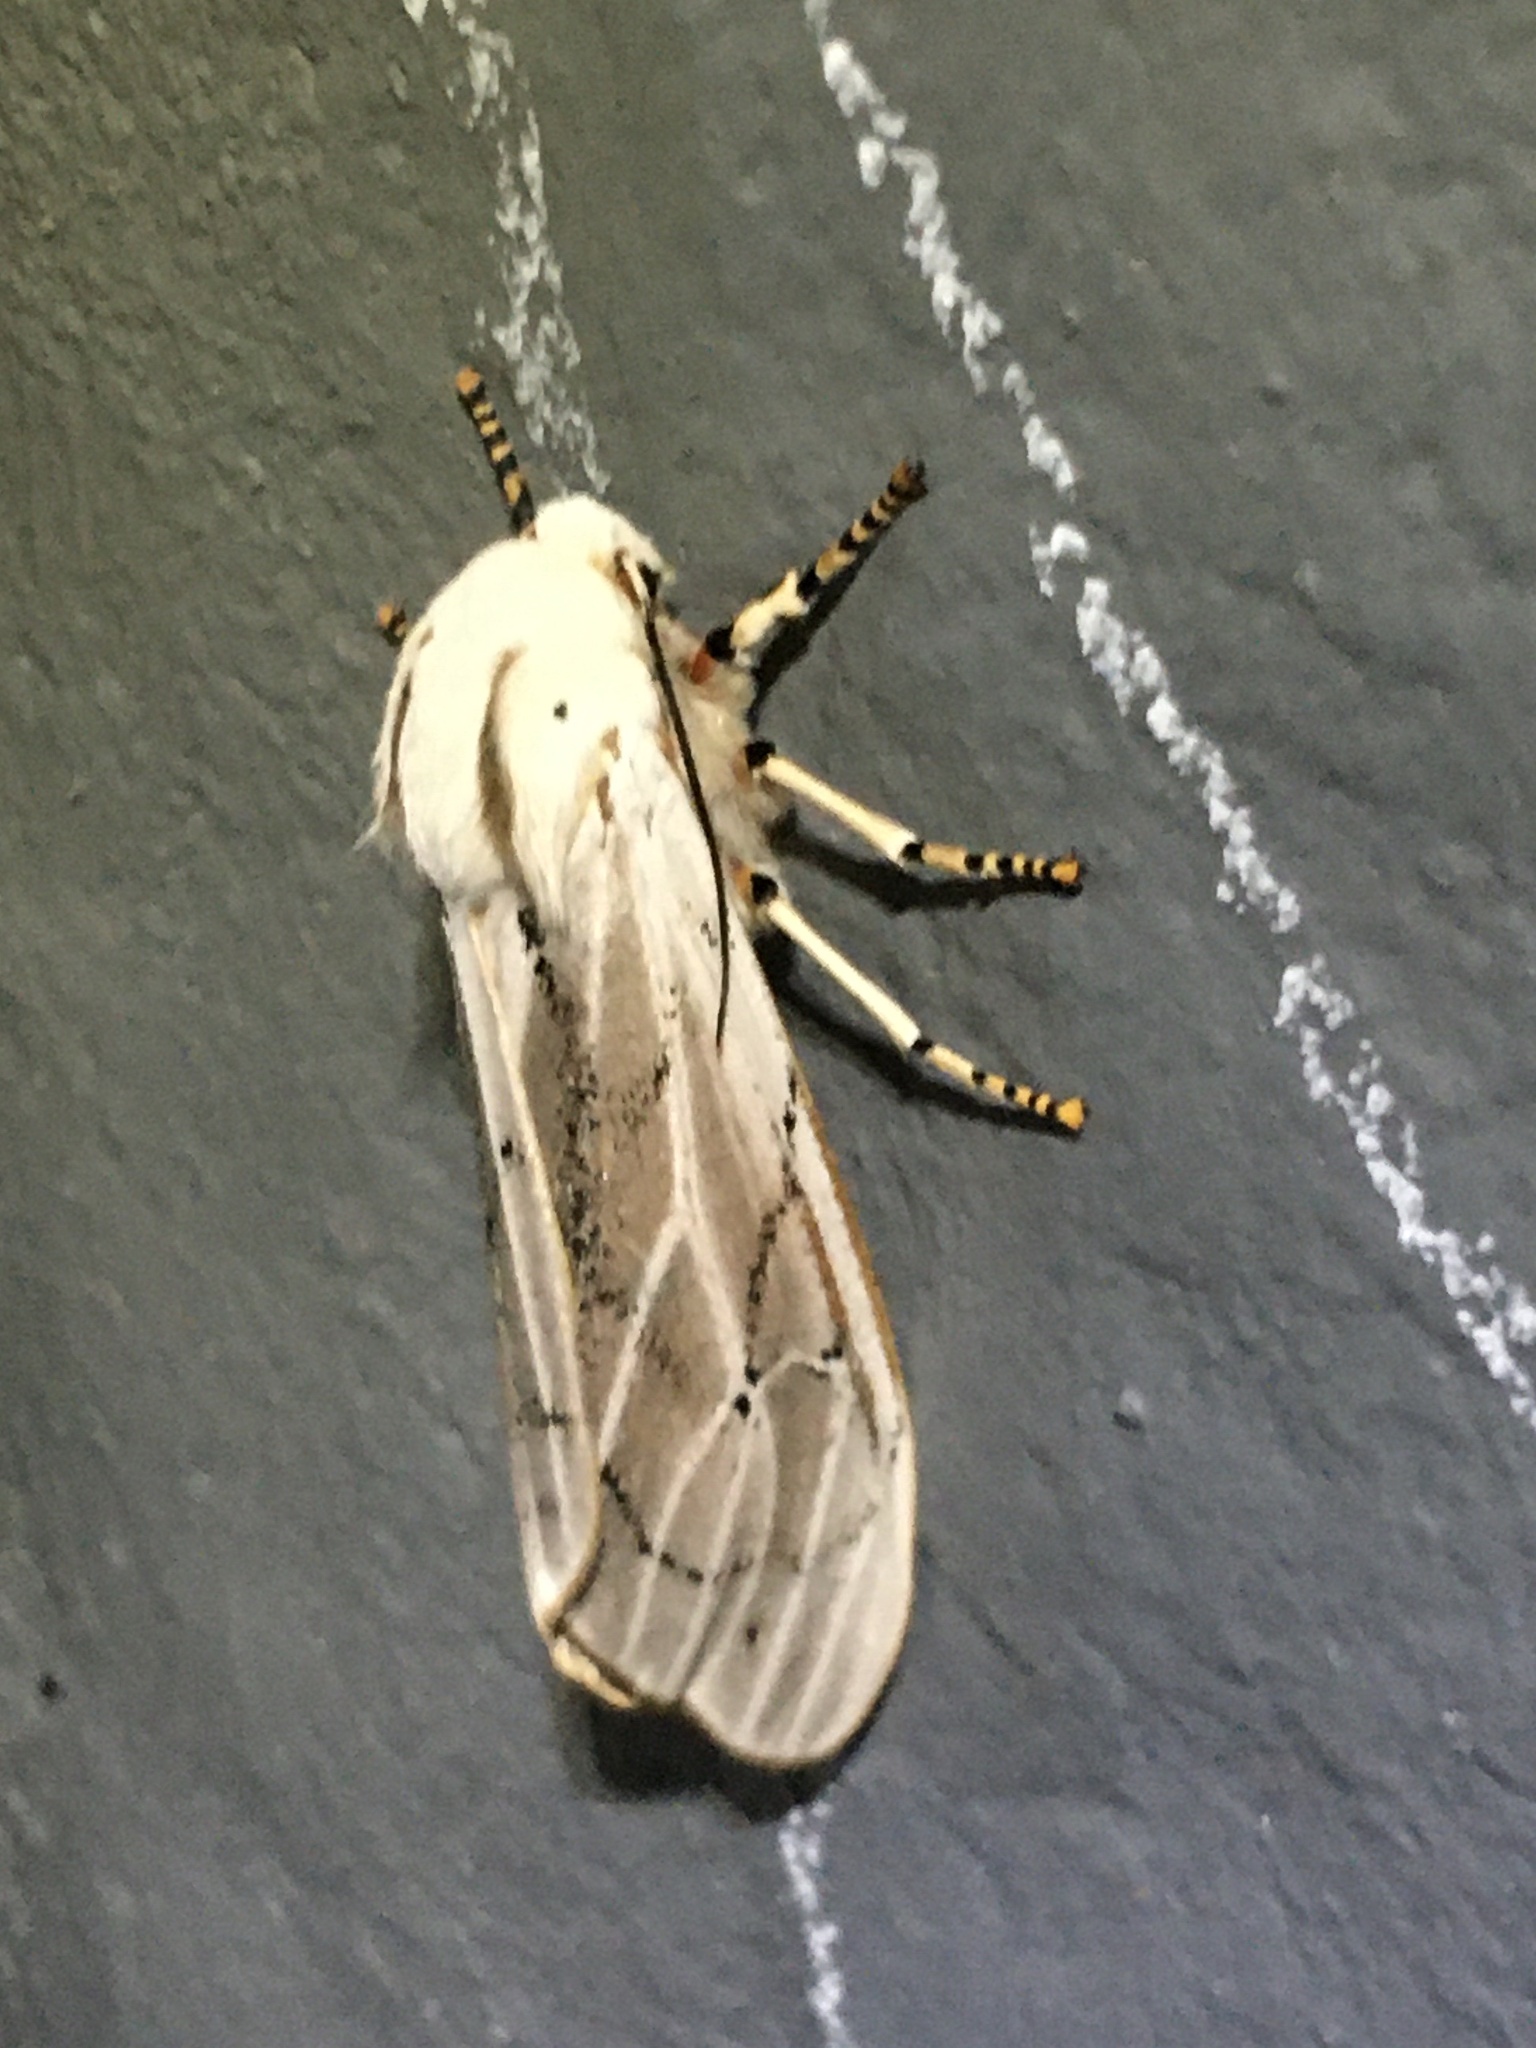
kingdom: Animalia
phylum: Arthropoda
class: Insecta
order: Lepidoptera
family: Erebidae
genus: Rhodogastria
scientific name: Rhodogastria amasis
